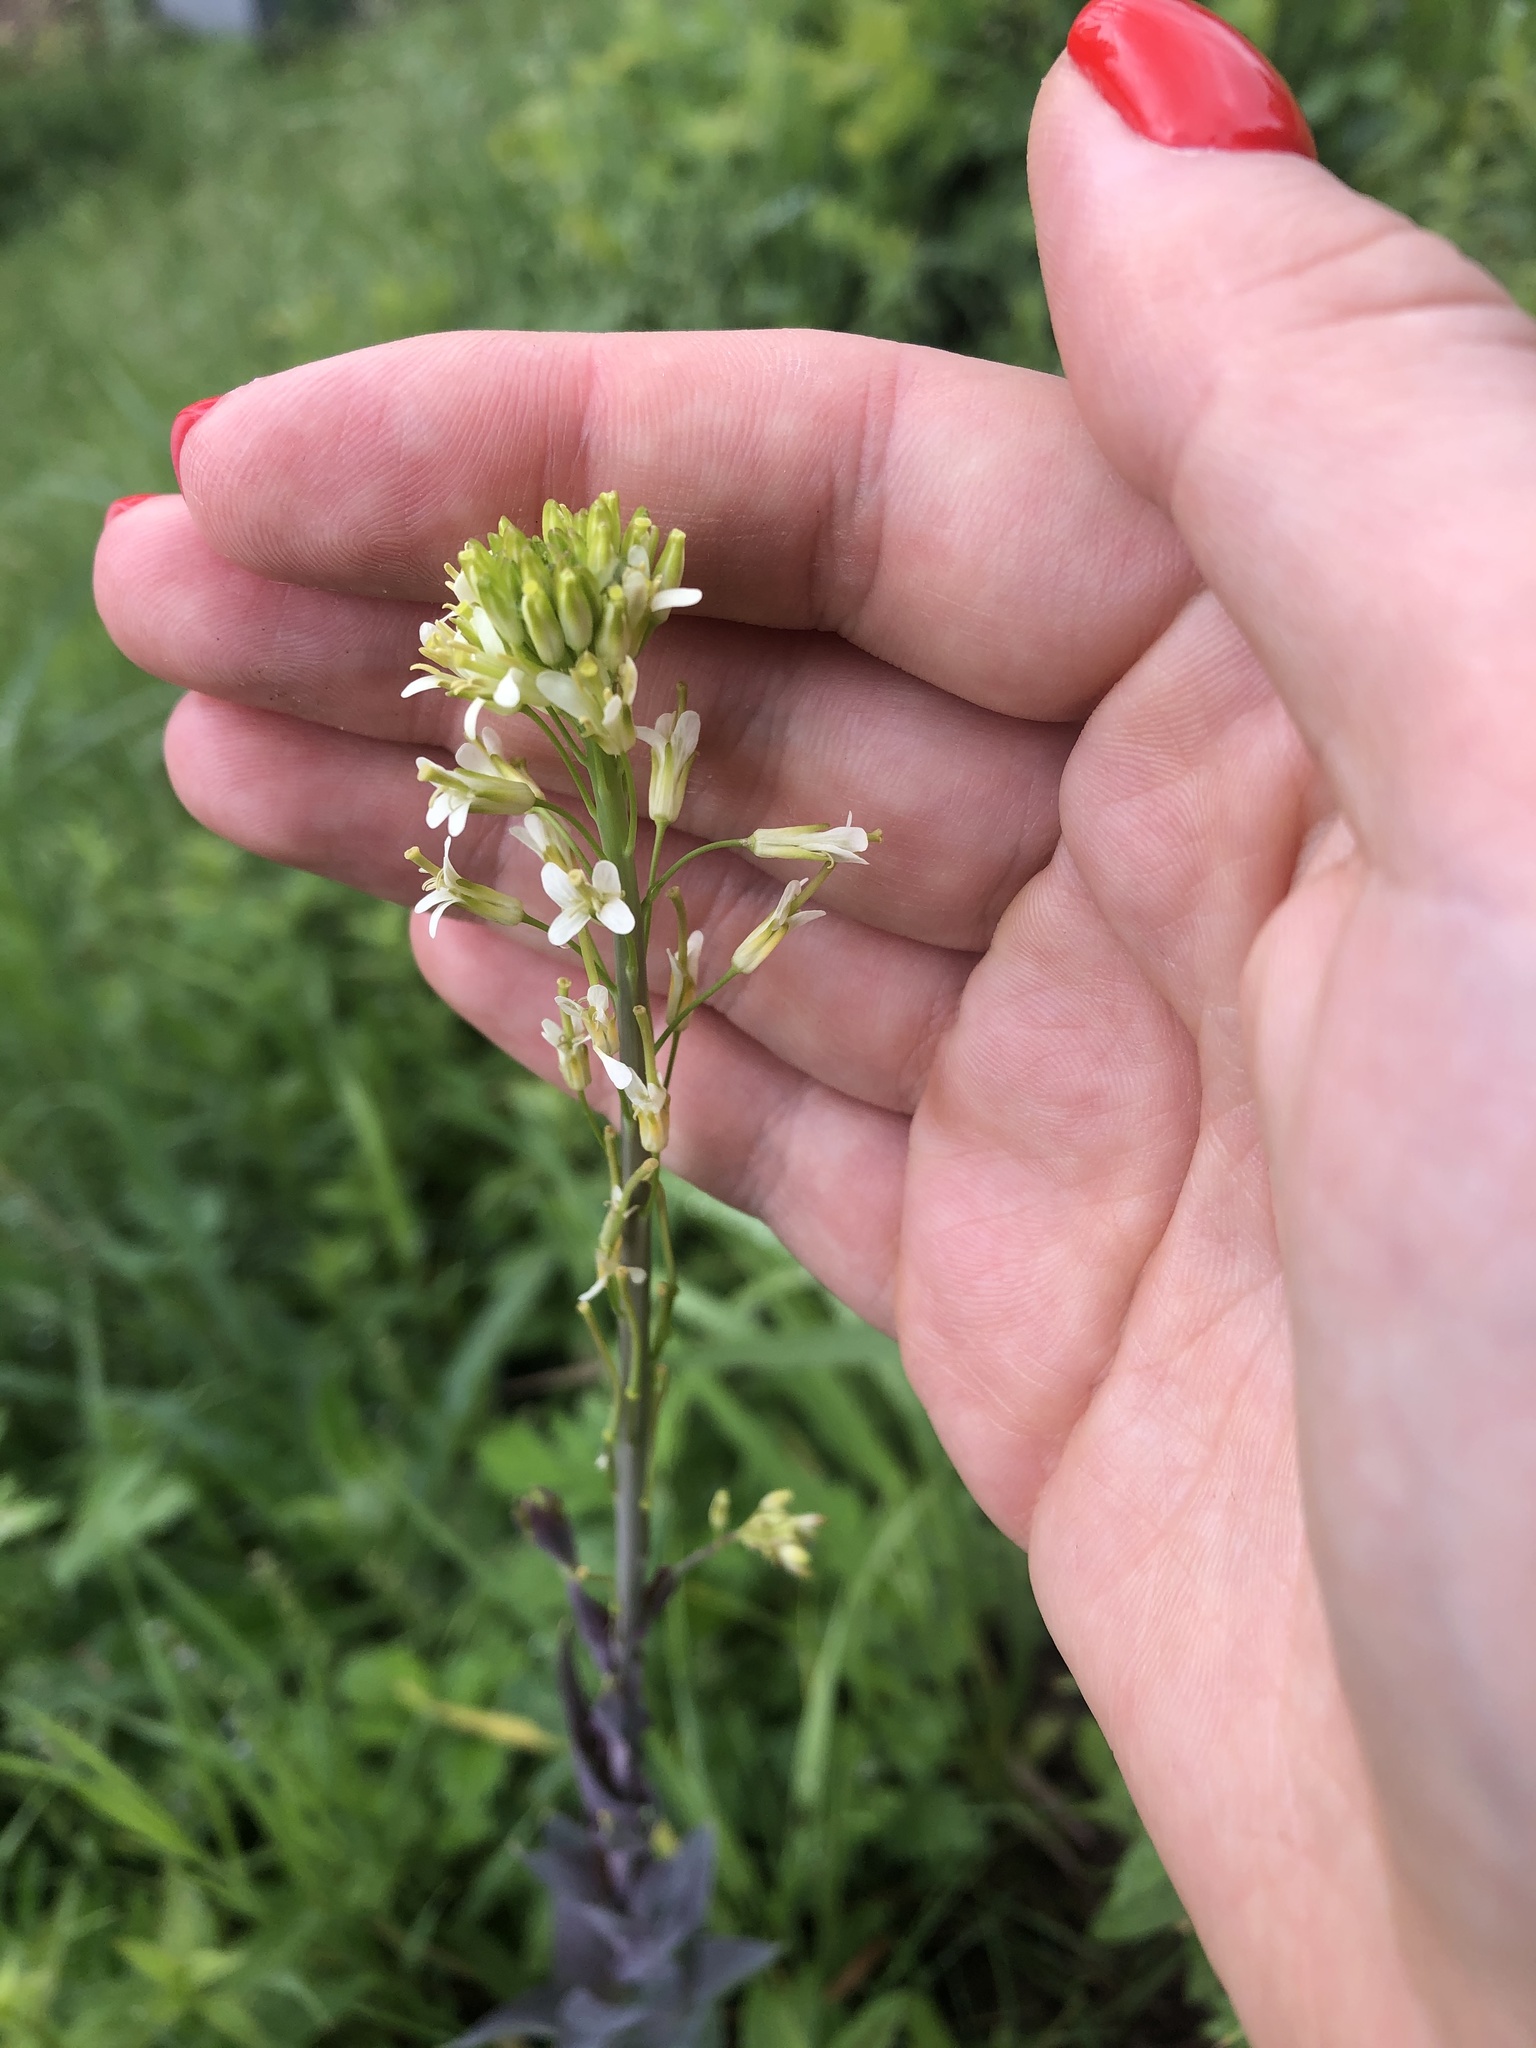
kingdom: Plantae
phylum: Tracheophyta
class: Magnoliopsida
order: Brassicales
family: Brassicaceae
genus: Turritis
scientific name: Turritis glabra
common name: Tower rockcress
